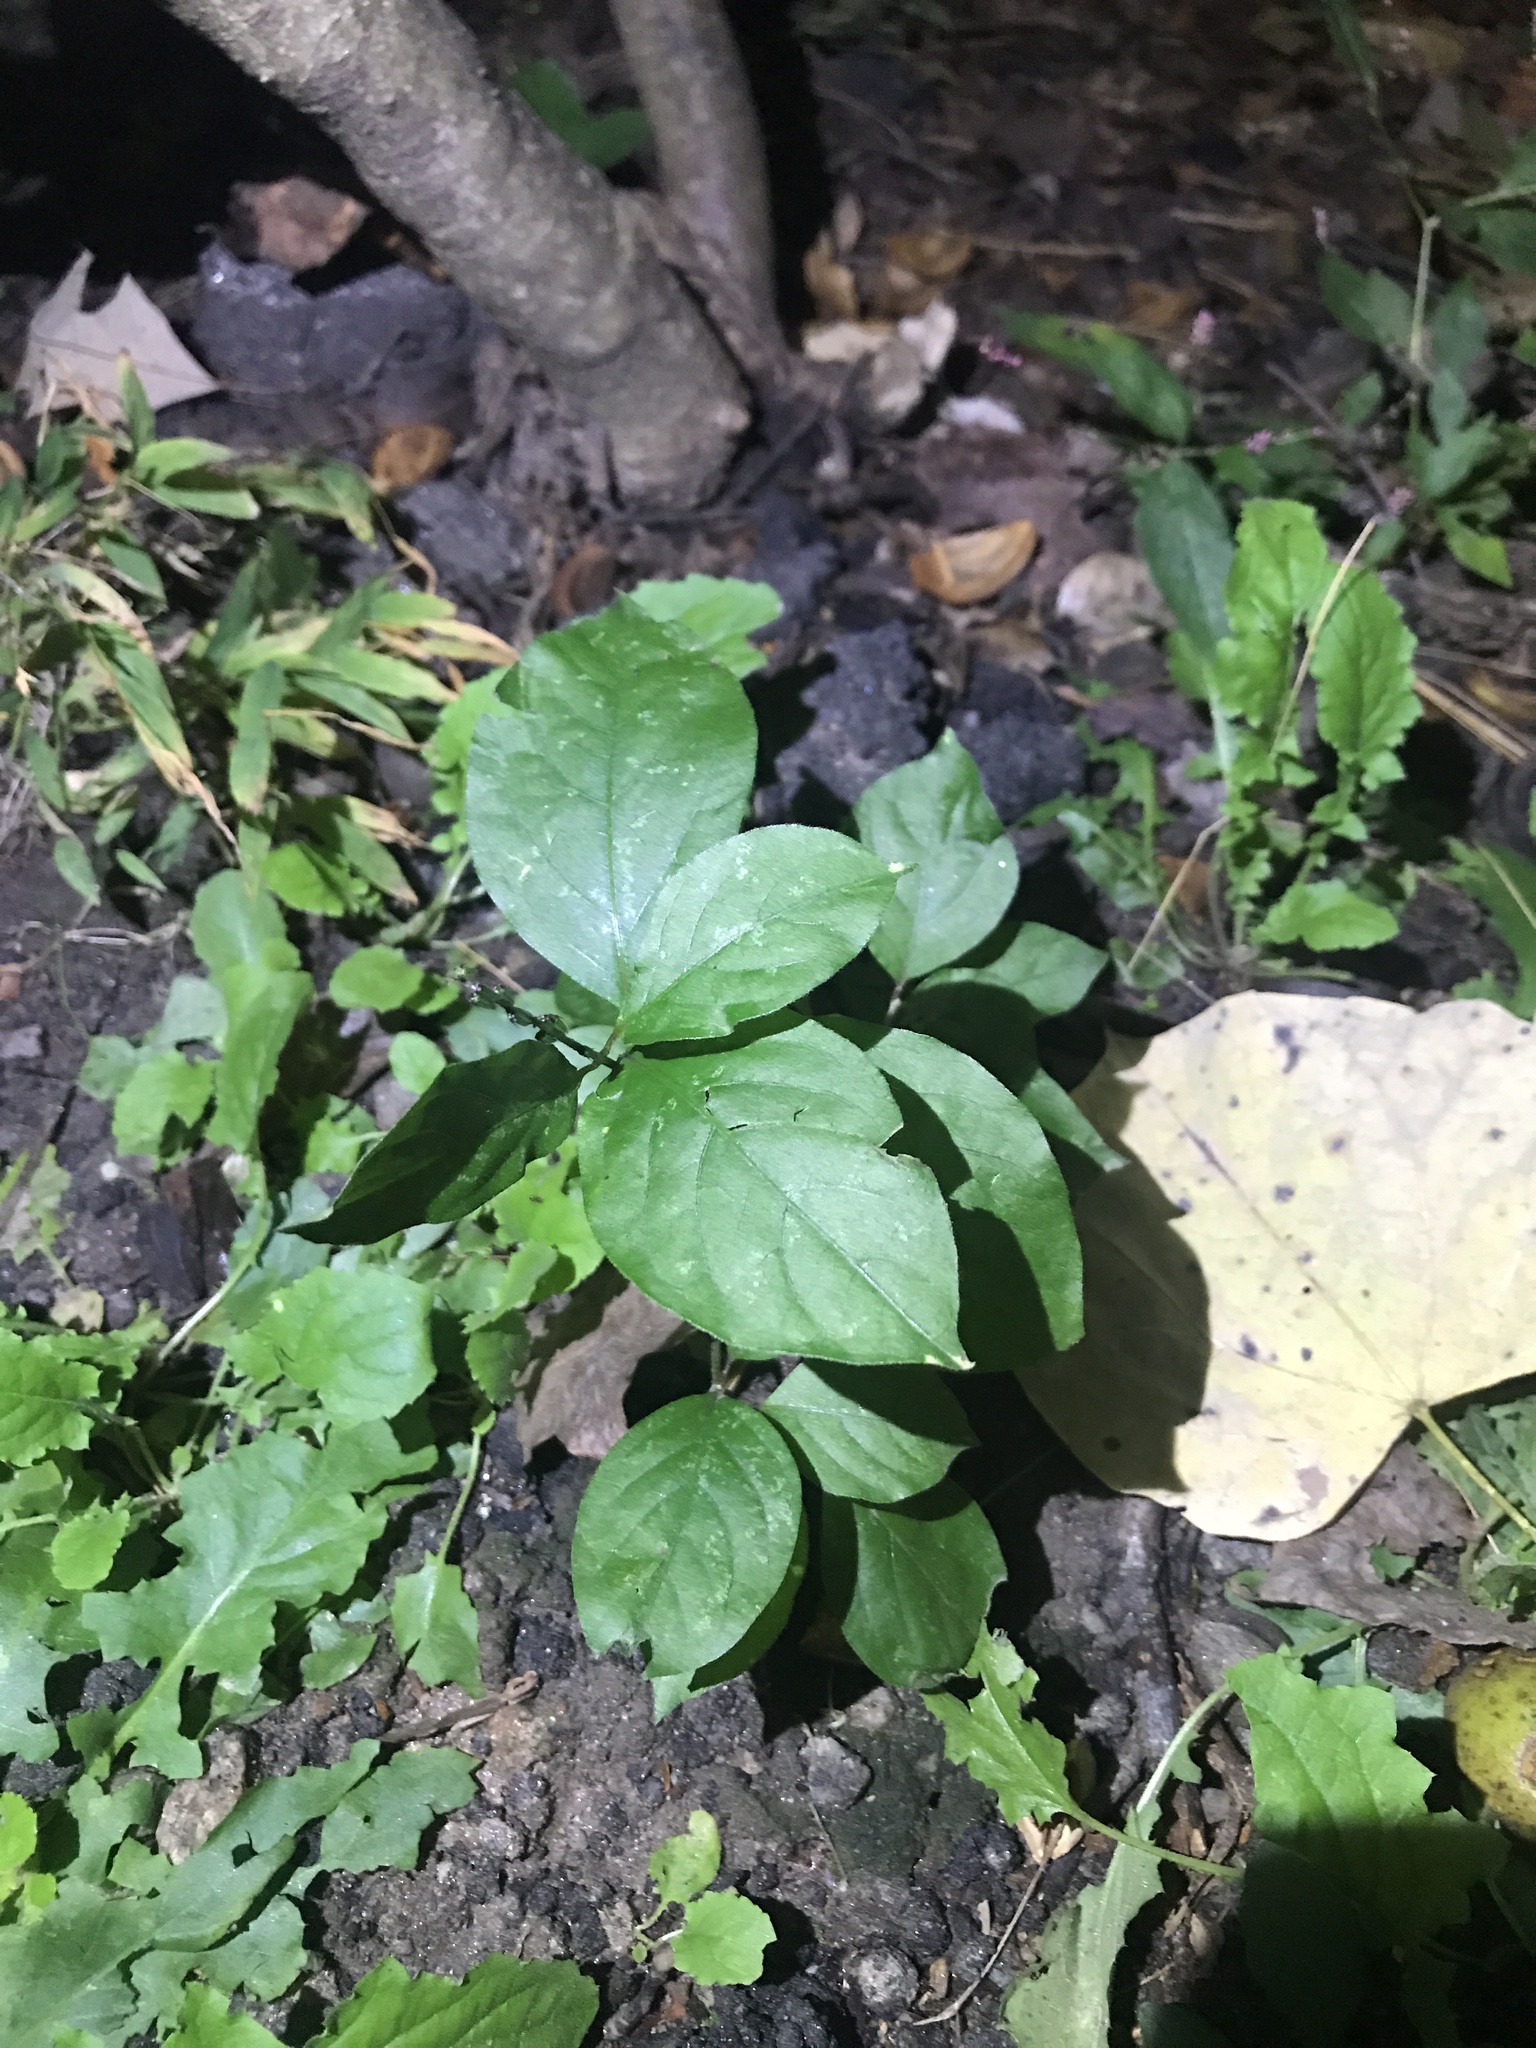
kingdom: Plantae
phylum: Tracheophyta
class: Magnoliopsida
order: Caryophyllales
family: Amaranthaceae
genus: Achyranthes
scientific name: Achyranthes bidentata
